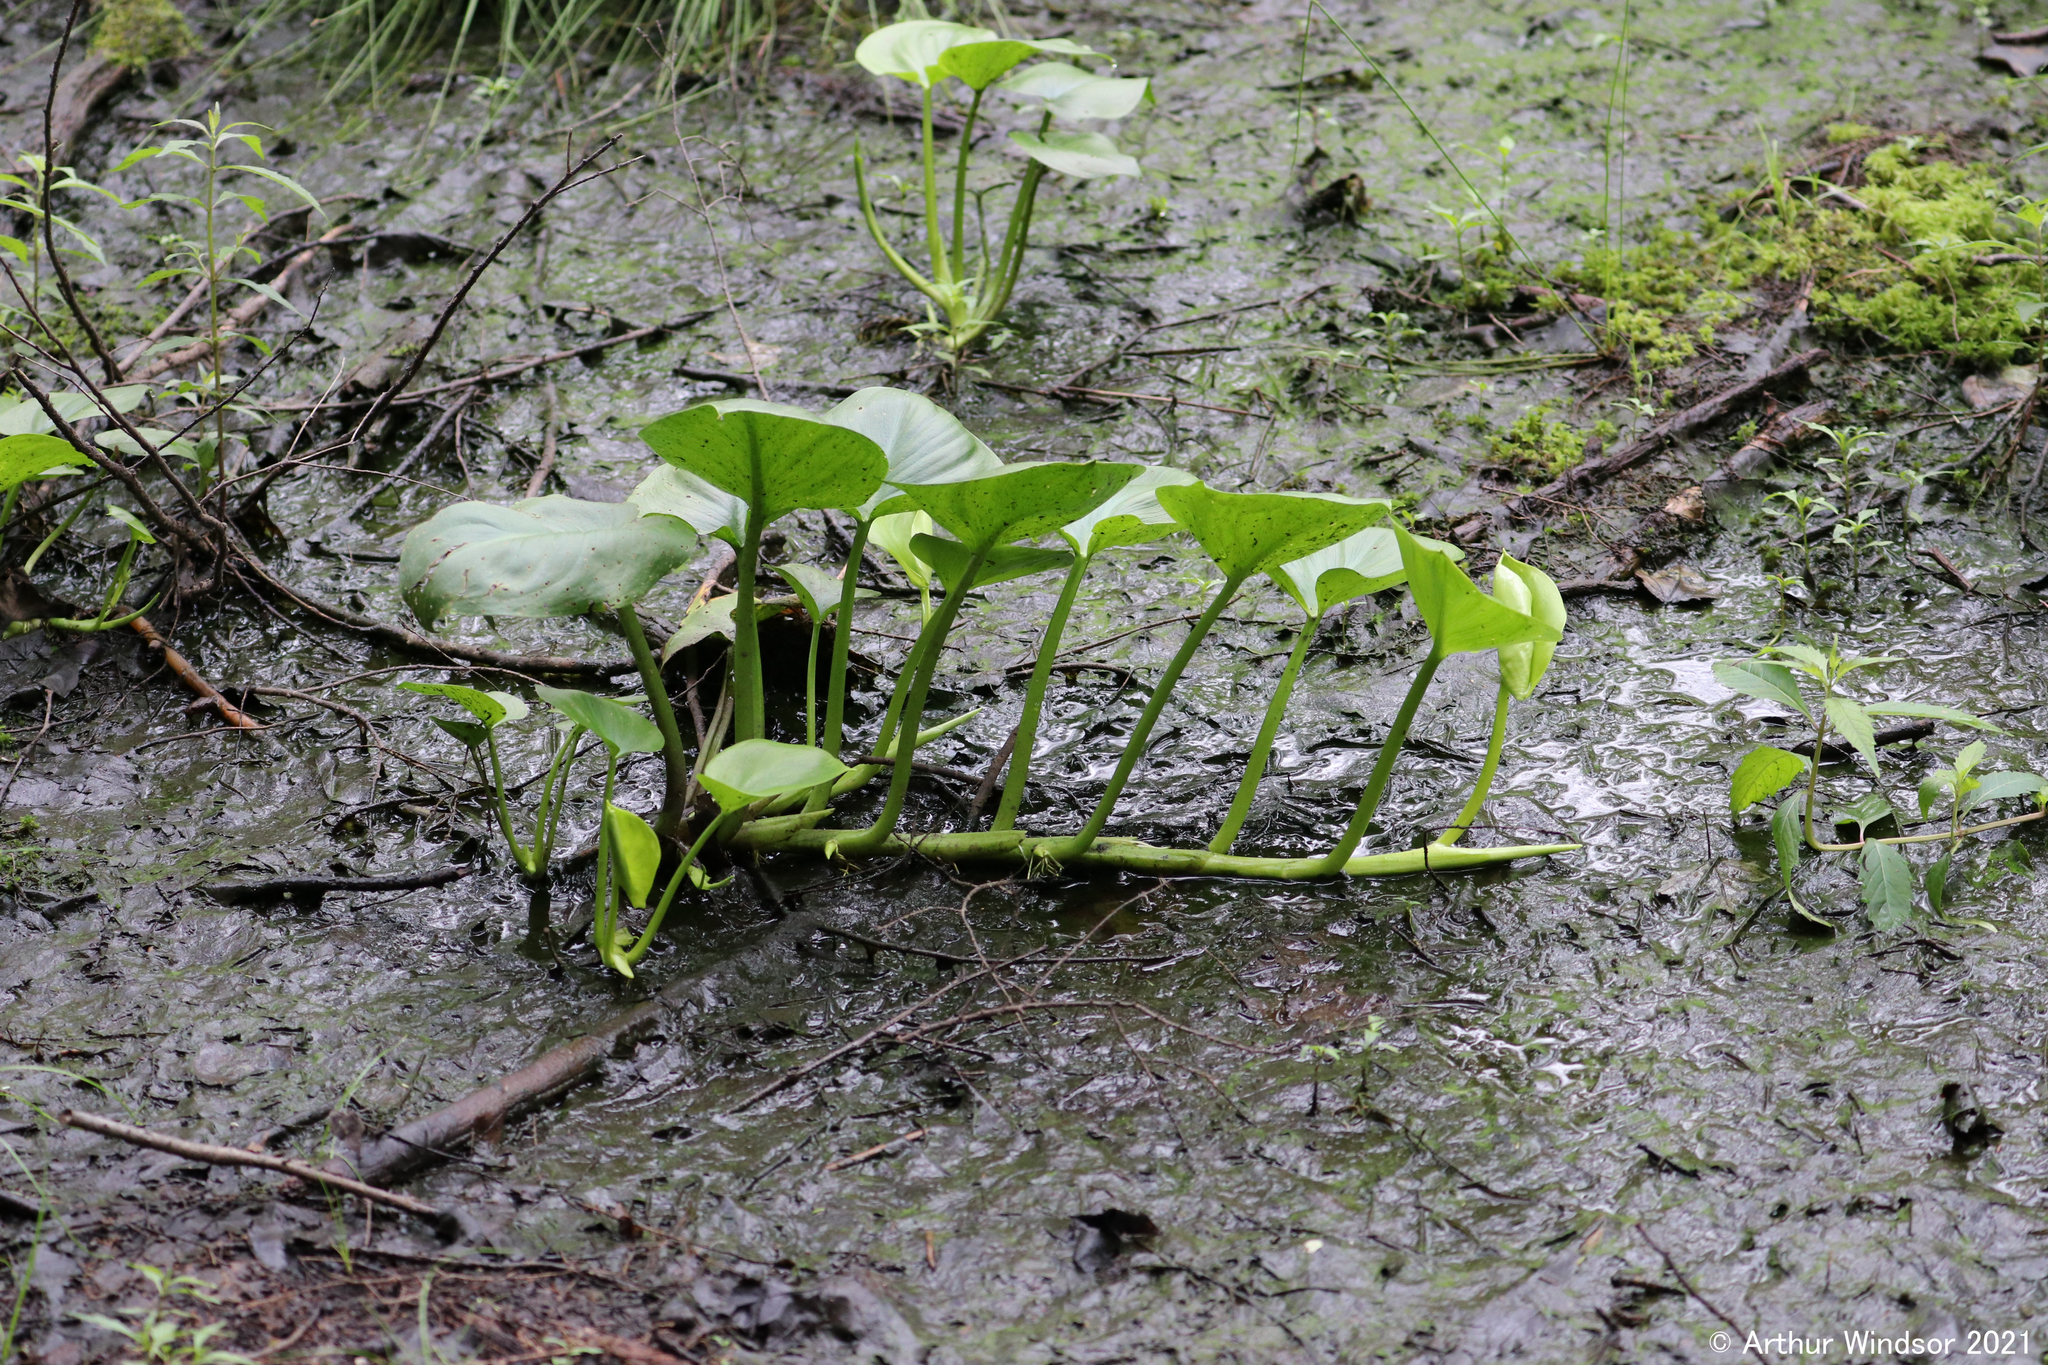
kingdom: Plantae
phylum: Tracheophyta
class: Liliopsida
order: Alismatales
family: Araceae
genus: Calla
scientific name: Calla palustris
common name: Bog arum
